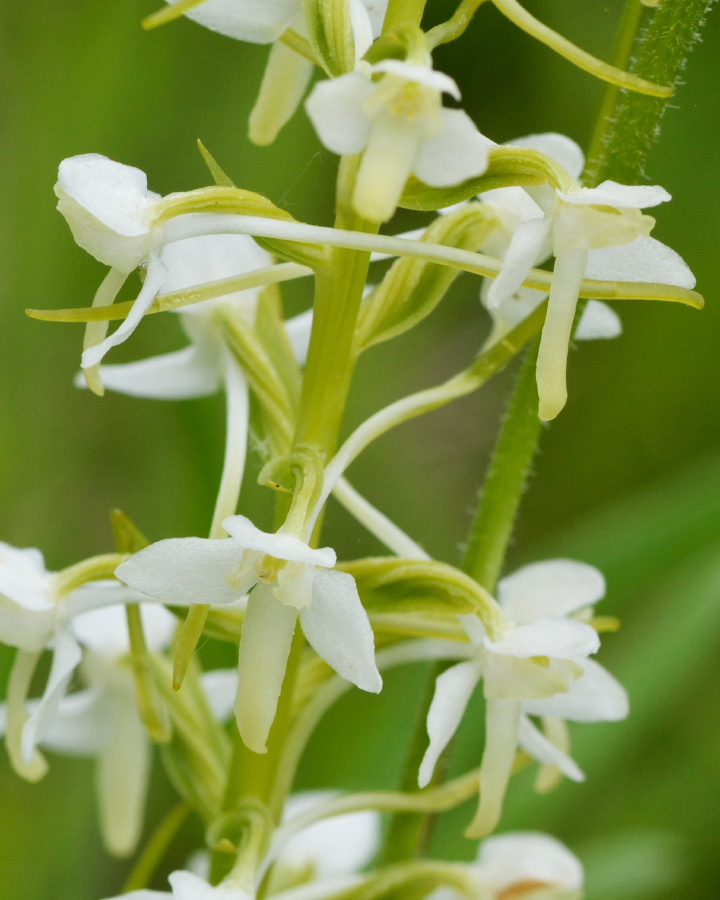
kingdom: Plantae
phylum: Tracheophyta
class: Liliopsida
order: Asparagales
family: Orchidaceae
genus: Platanthera
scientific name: Platanthera bifolia
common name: Lesser butterfly-orchid
